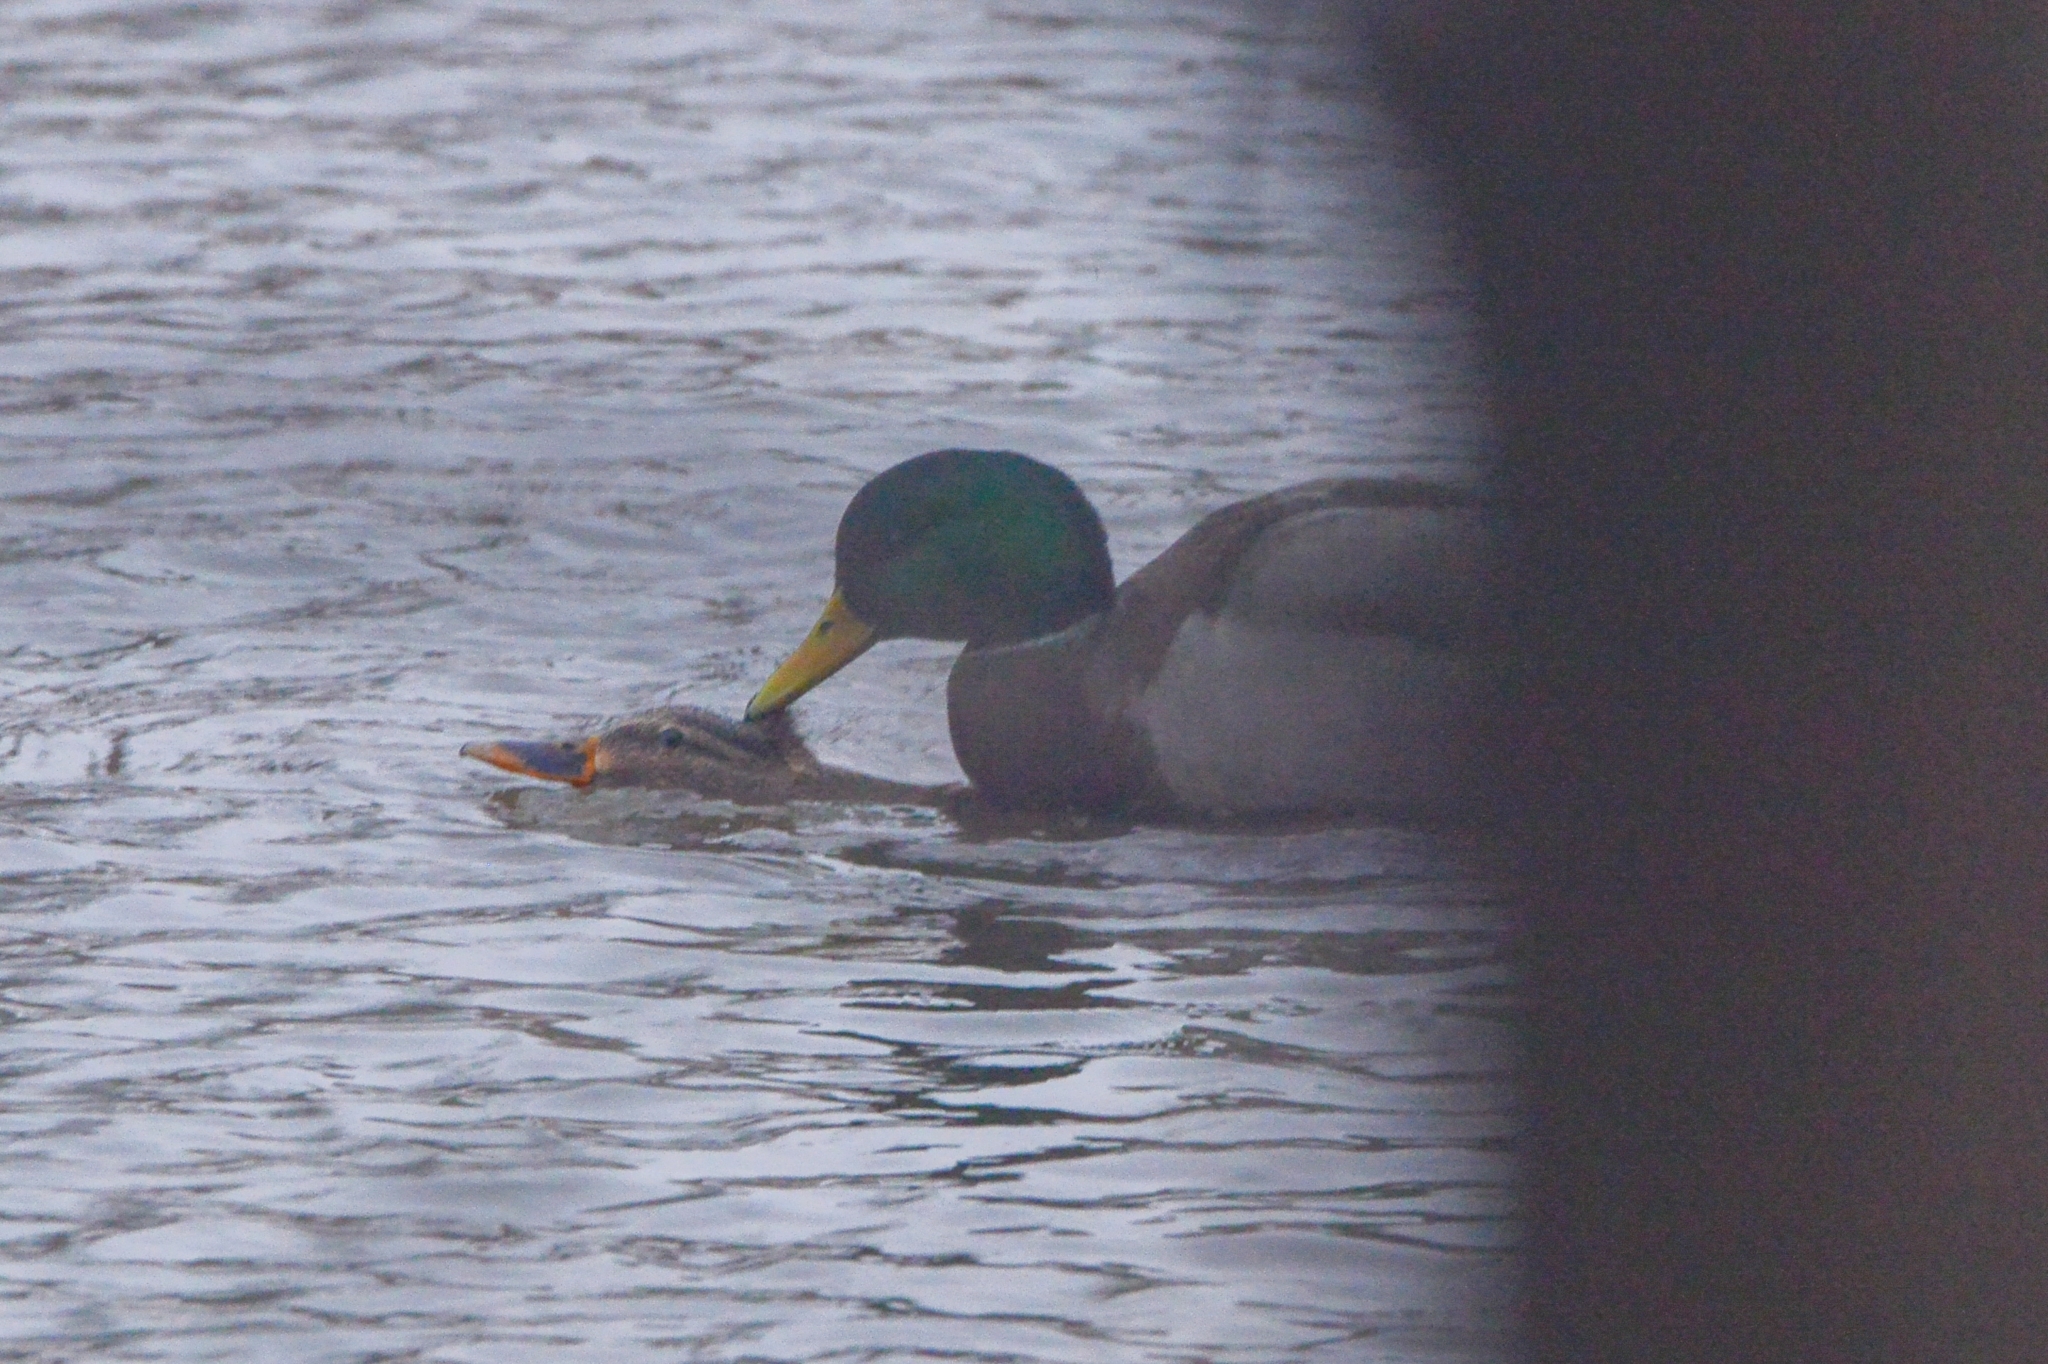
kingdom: Animalia
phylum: Chordata
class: Aves
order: Anseriformes
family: Anatidae
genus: Anas
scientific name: Anas platyrhynchos
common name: Mallard
